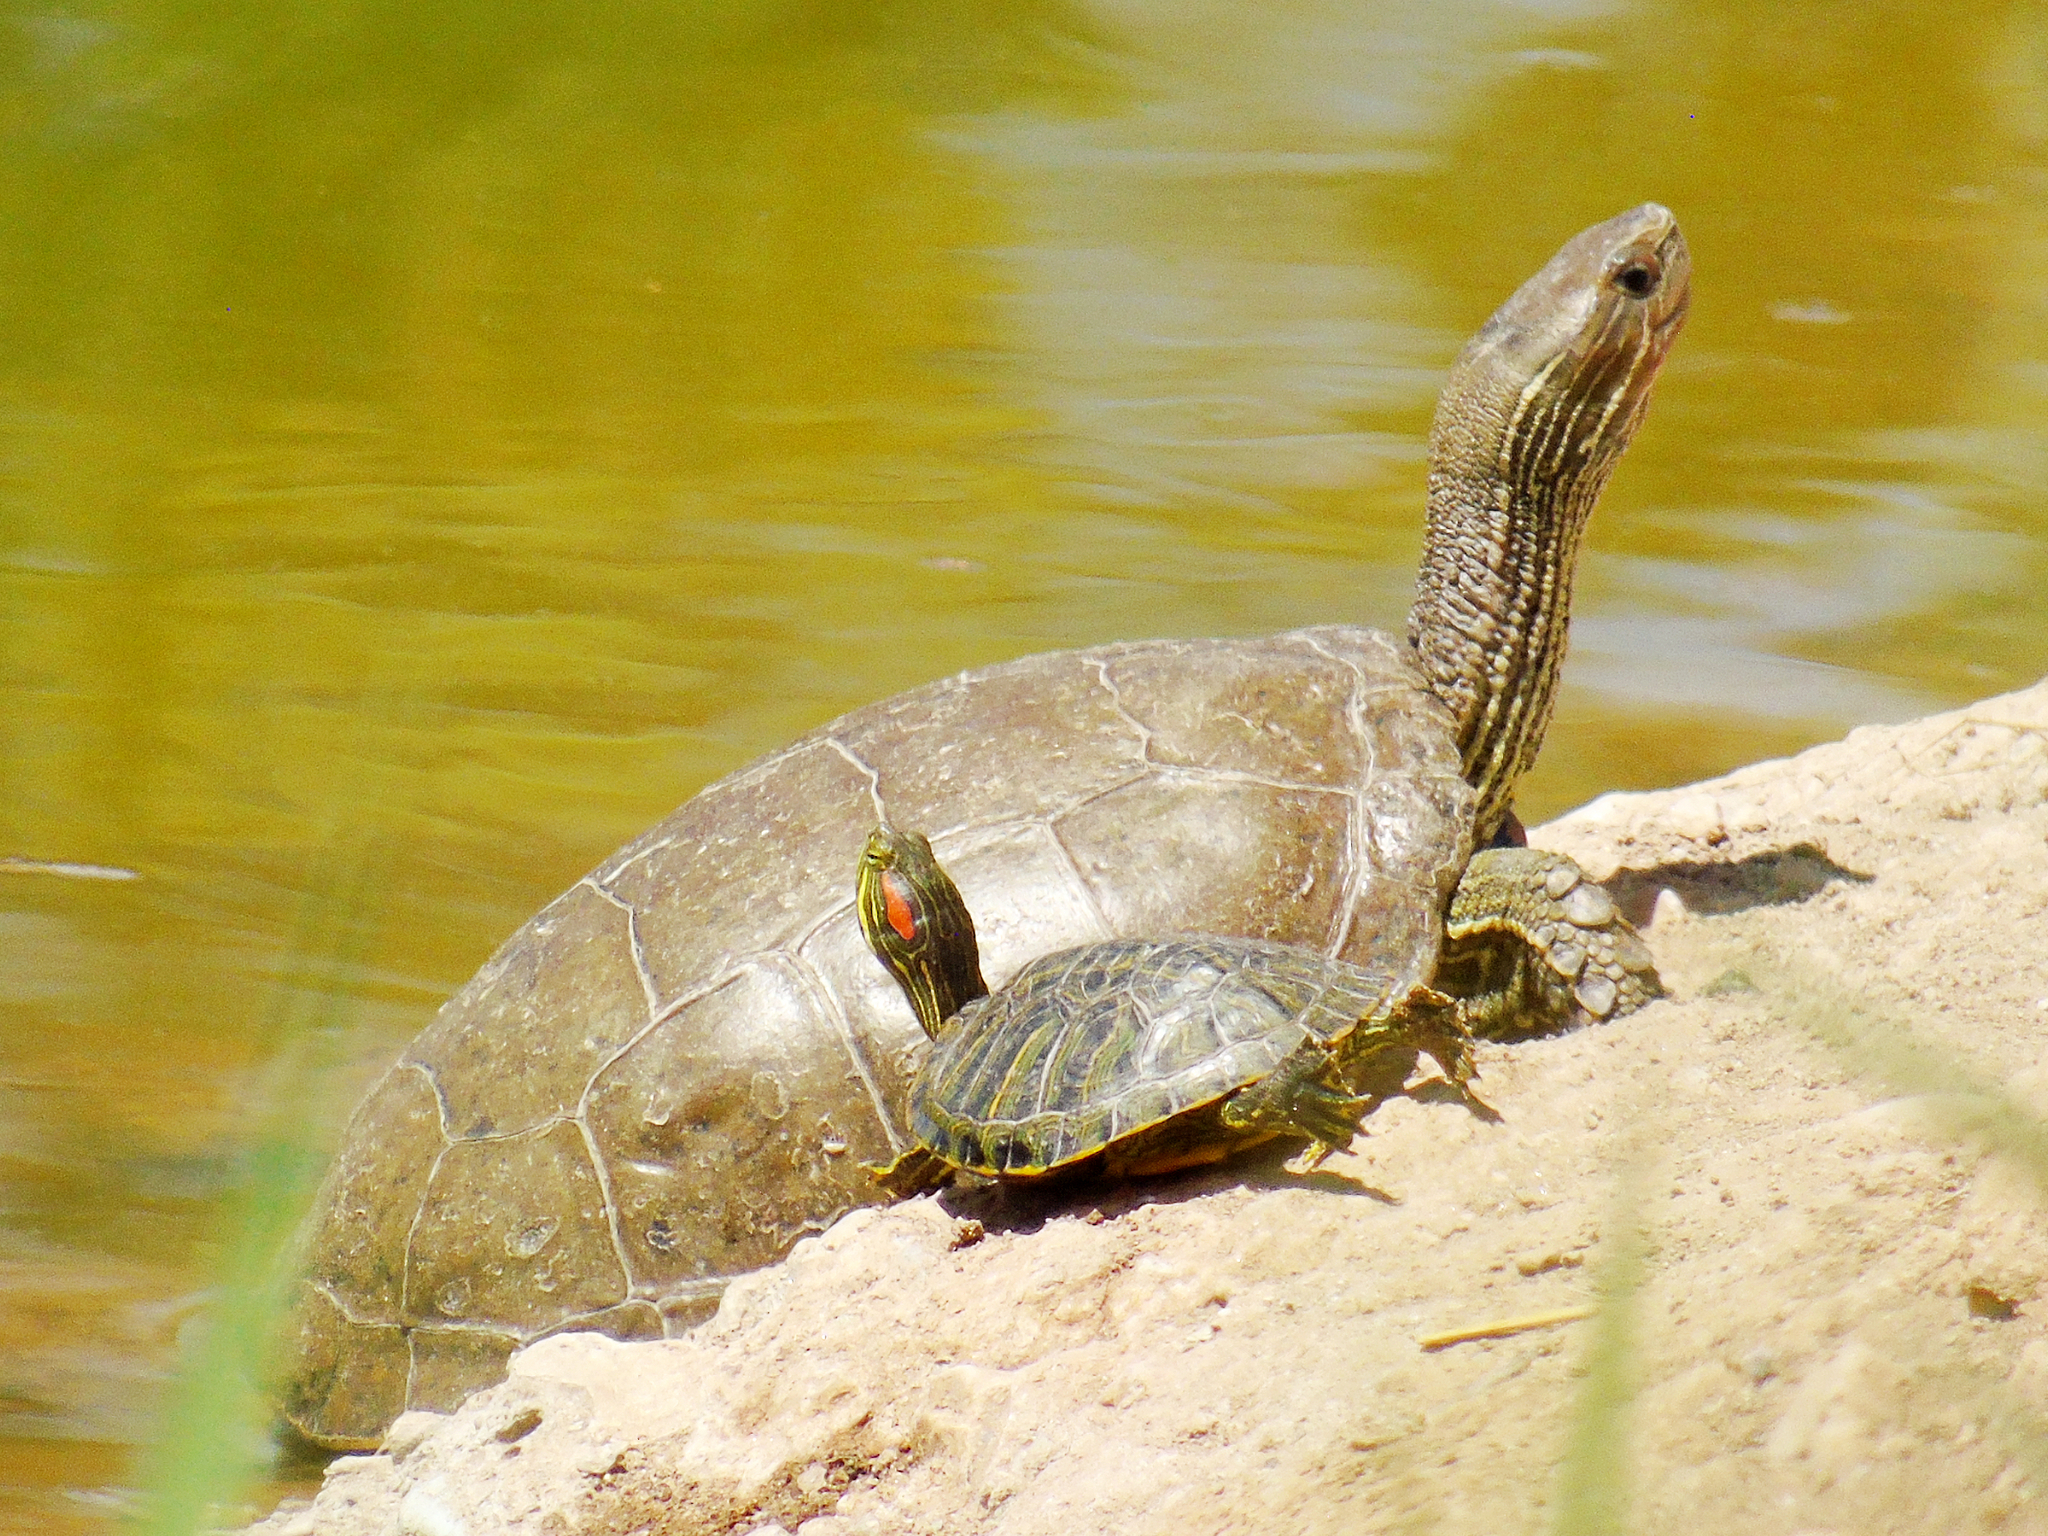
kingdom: Animalia
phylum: Chordata
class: Testudines
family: Emydidae
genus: Trachemys
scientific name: Trachemys scripta
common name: Slider
